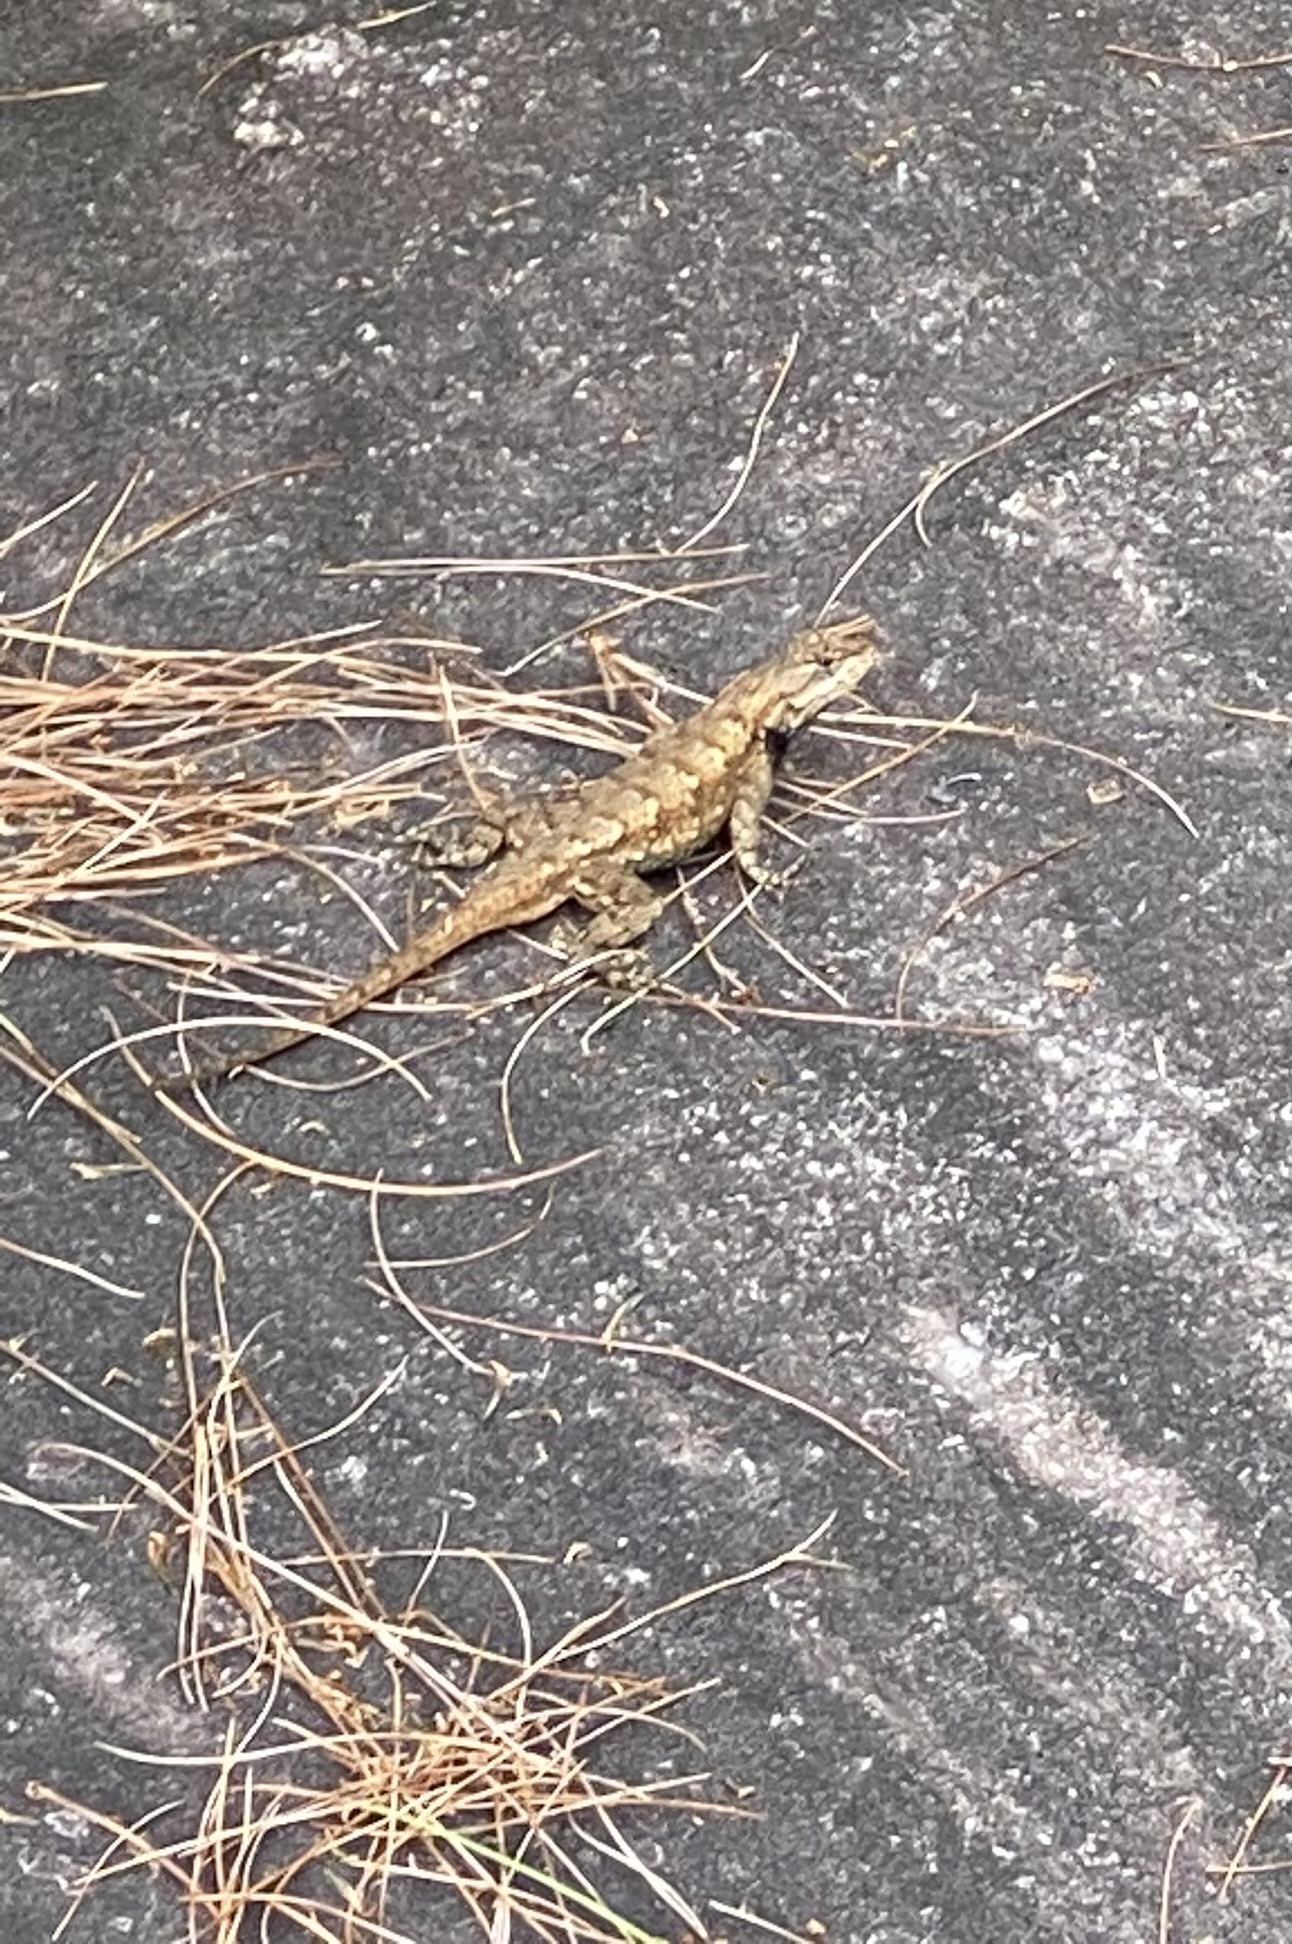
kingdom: Animalia
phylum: Chordata
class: Squamata
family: Phrynosomatidae
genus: Sceloporus
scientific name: Sceloporus undulatus
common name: Eastern fence lizard
